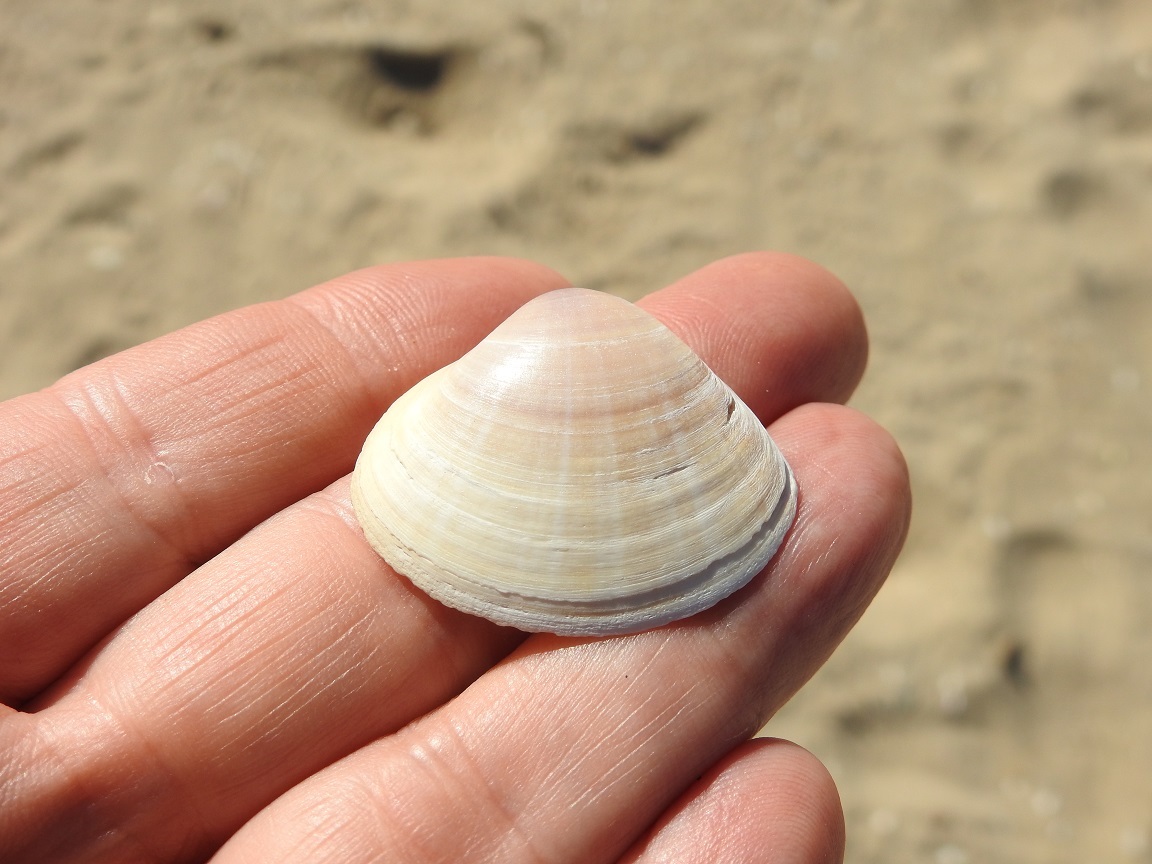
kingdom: Animalia
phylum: Mollusca
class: Bivalvia
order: Venerida
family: Mactridae
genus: Mactra
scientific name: Mactra stultorum
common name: Rayed trough shell
